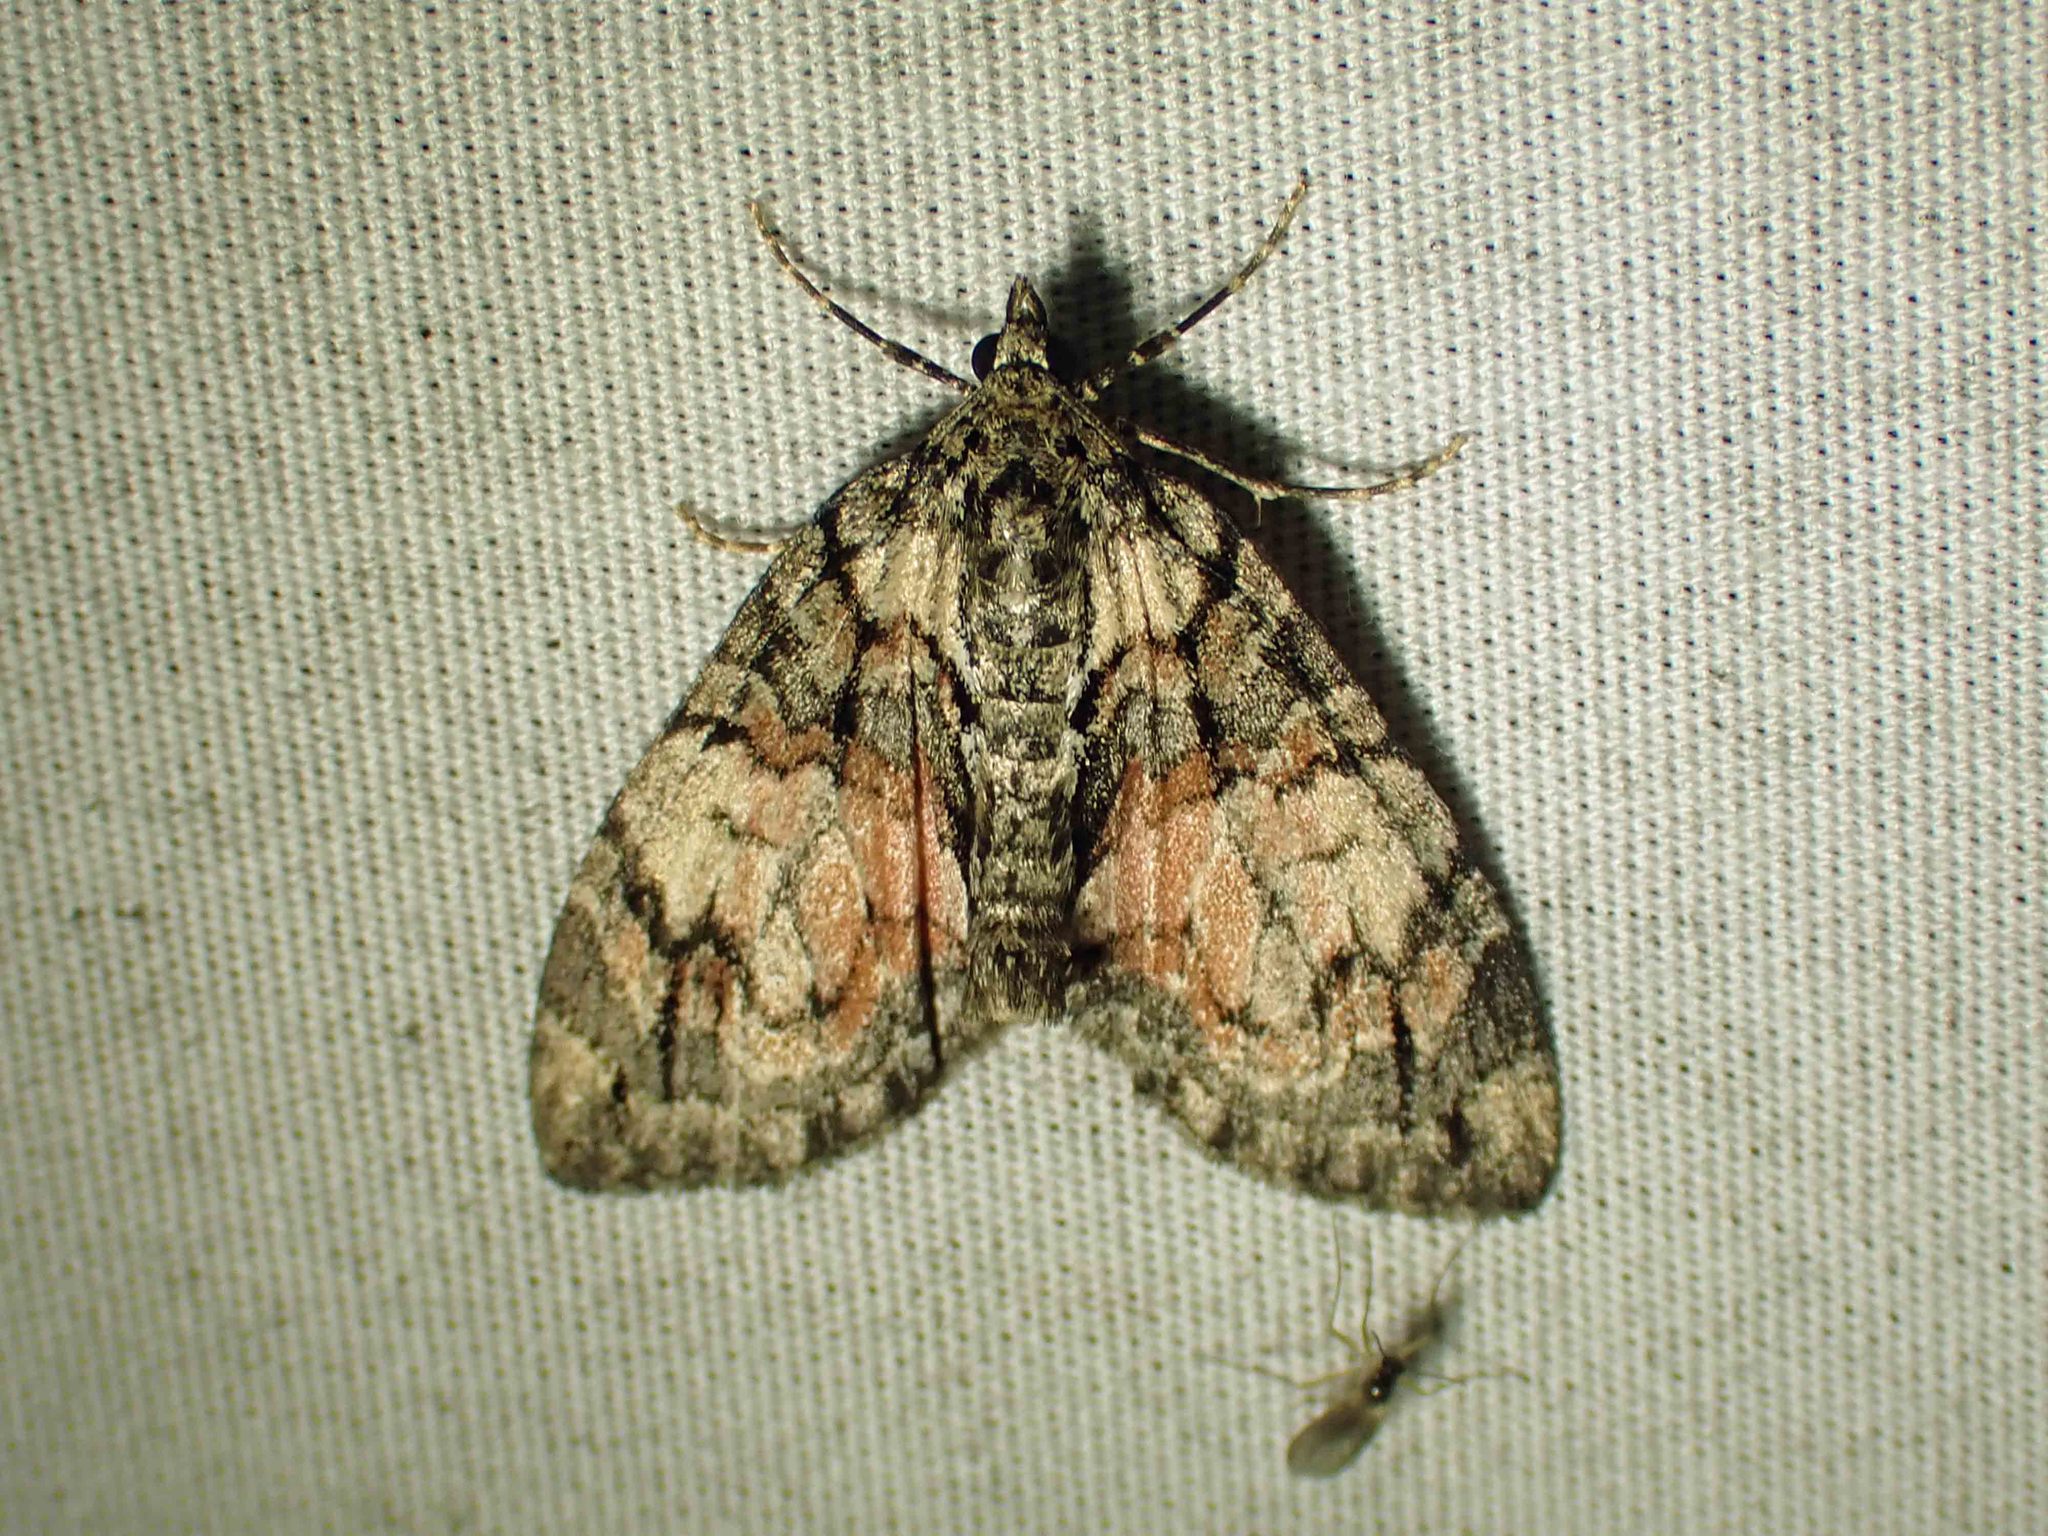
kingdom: Animalia
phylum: Arthropoda
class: Insecta
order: Lepidoptera
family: Geometridae
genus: Hydriomena
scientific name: Hydriomena perfracta
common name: Shattered hydriomena moth
